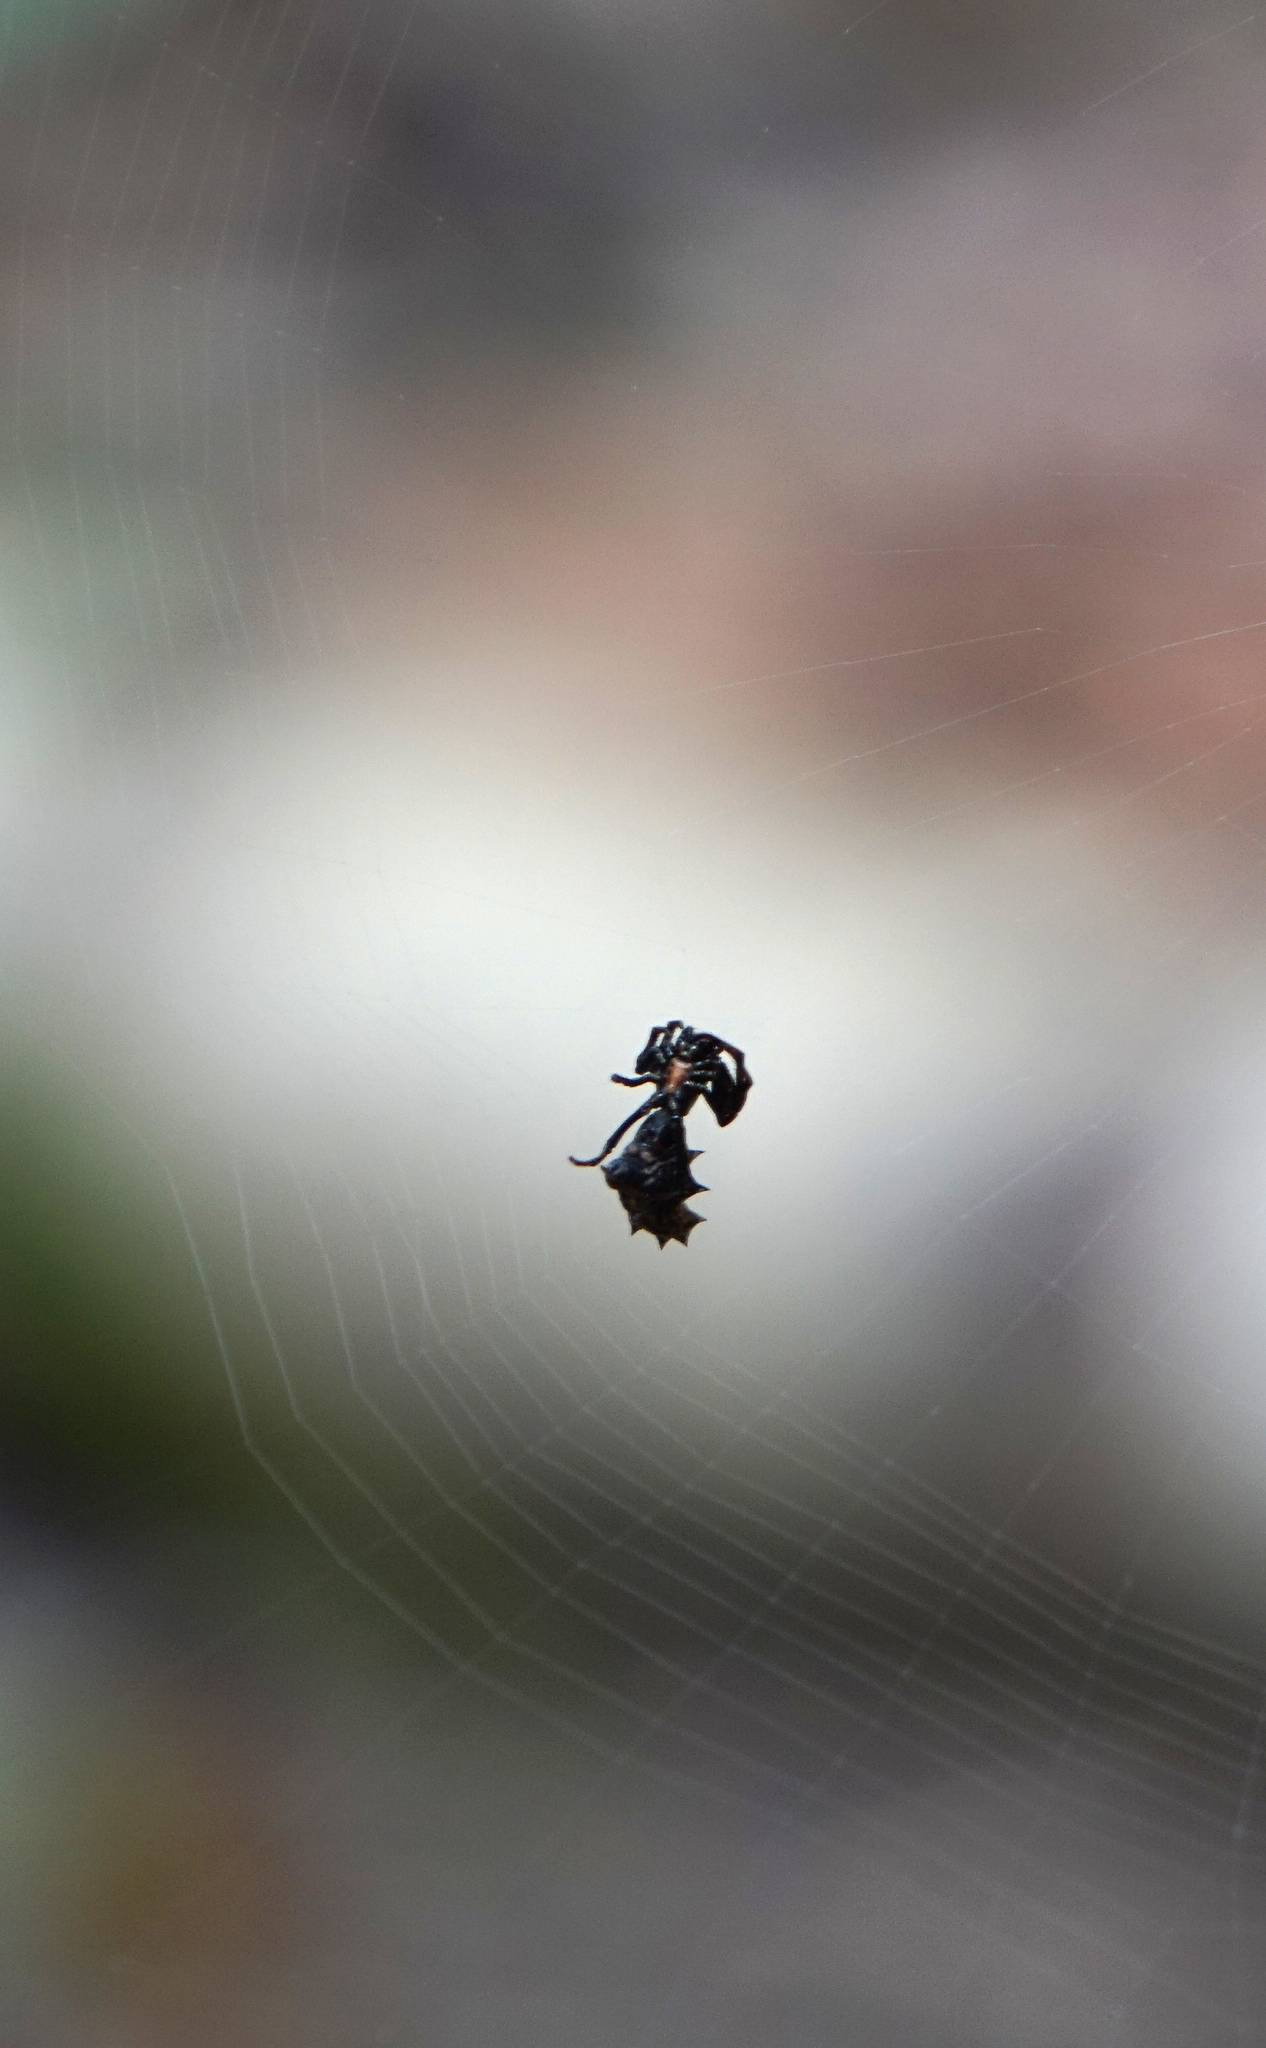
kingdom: Animalia
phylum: Arthropoda
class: Arachnida
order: Araneae
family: Araneidae
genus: Micrathena
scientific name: Micrathena gracilis
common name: Orb weavers
